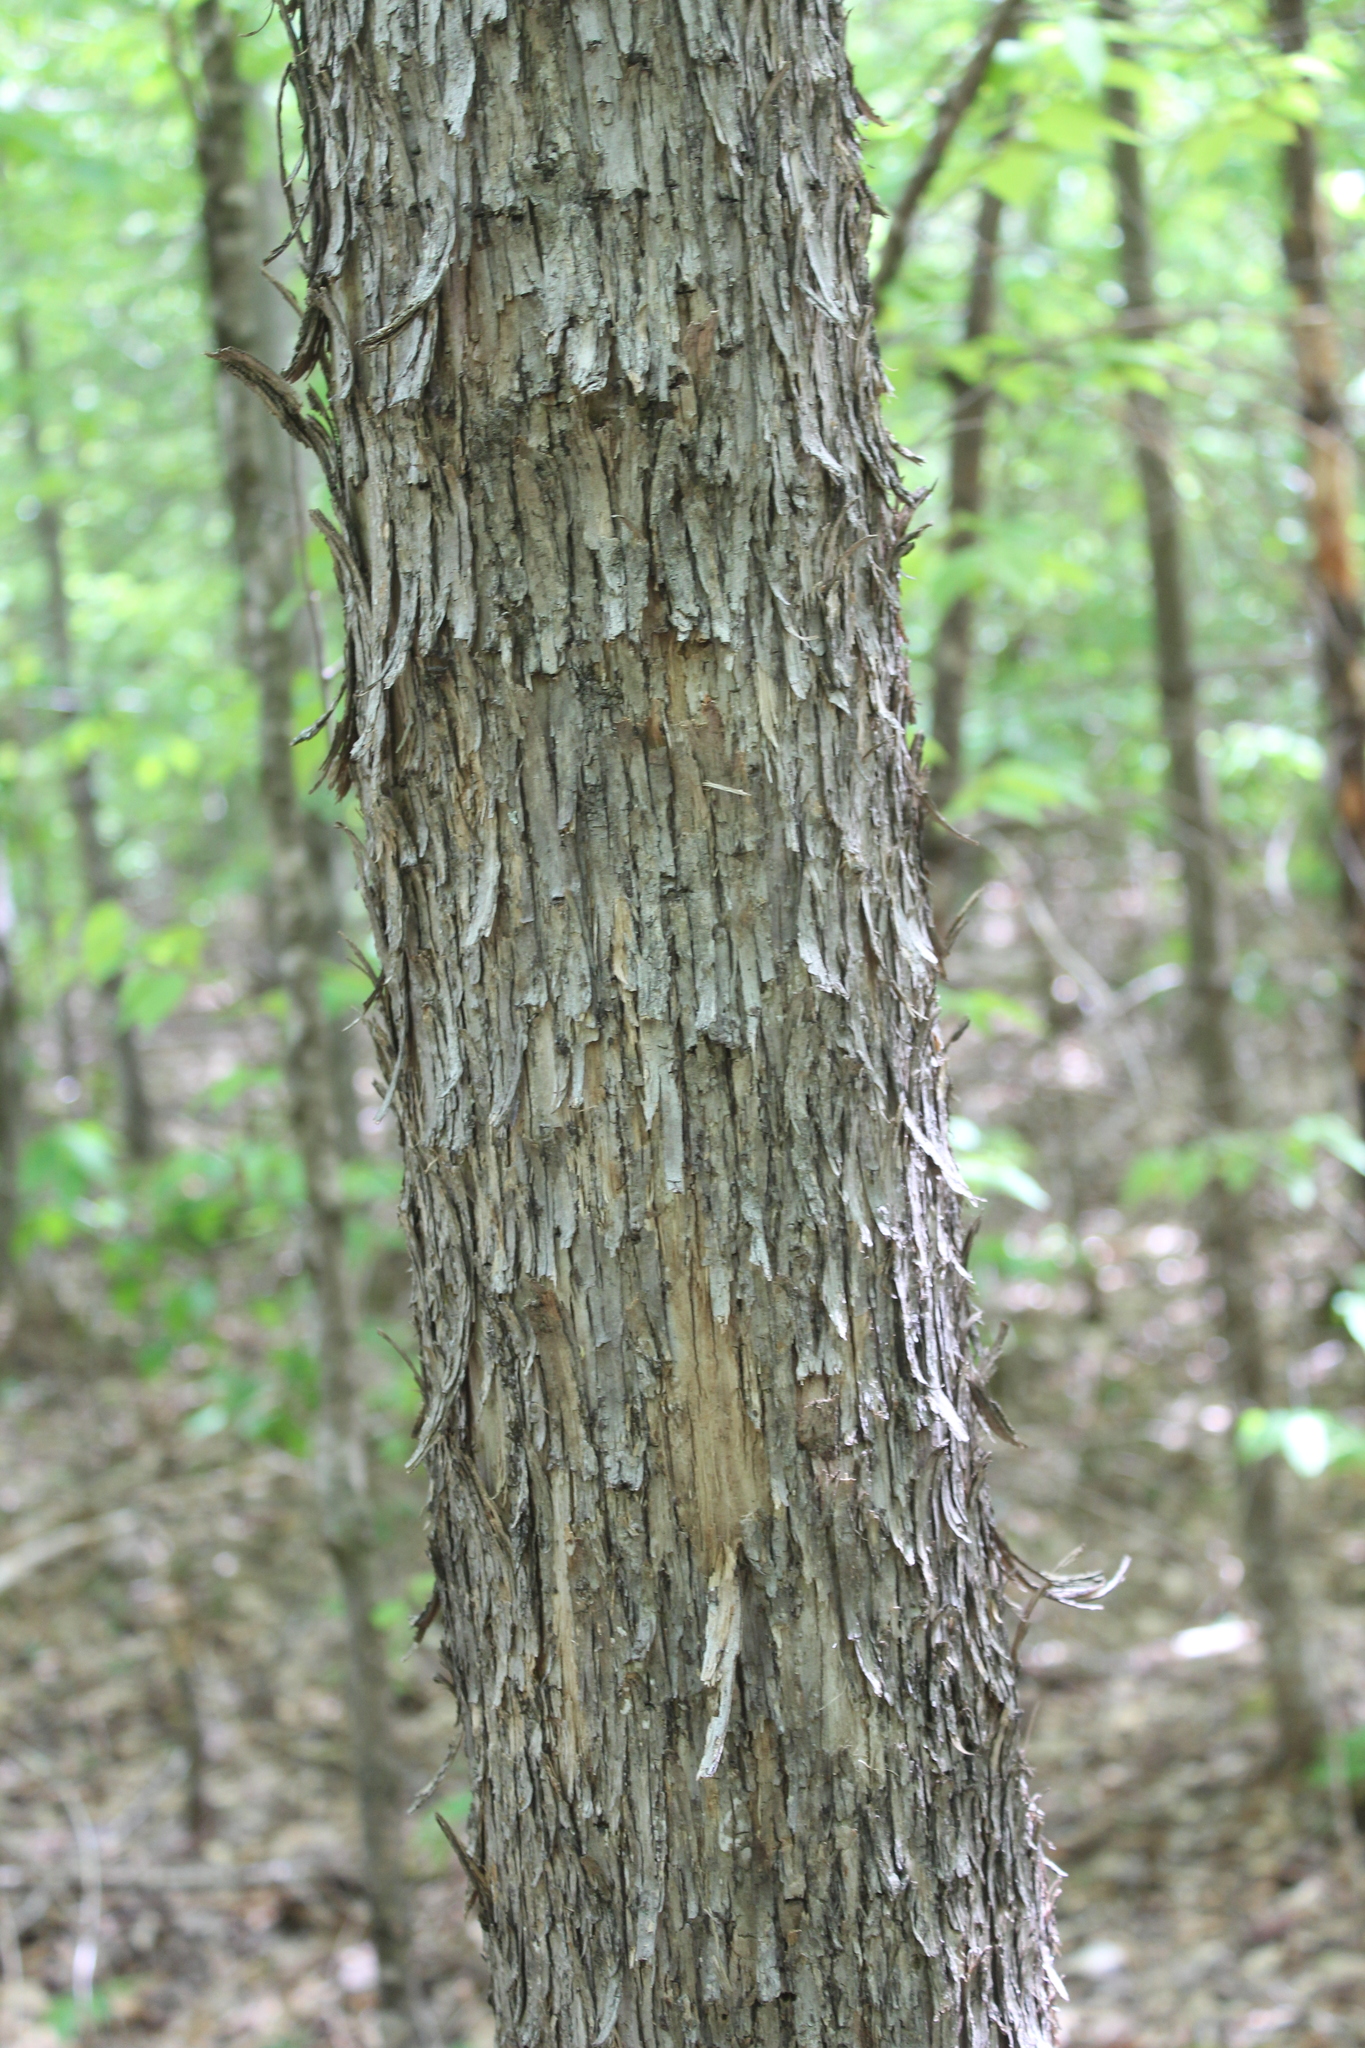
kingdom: Plantae
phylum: Tracheophyta
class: Magnoliopsida
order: Fagales
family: Betulaceae
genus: Ostrya
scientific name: Ostrya virginiana
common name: Ironwood
